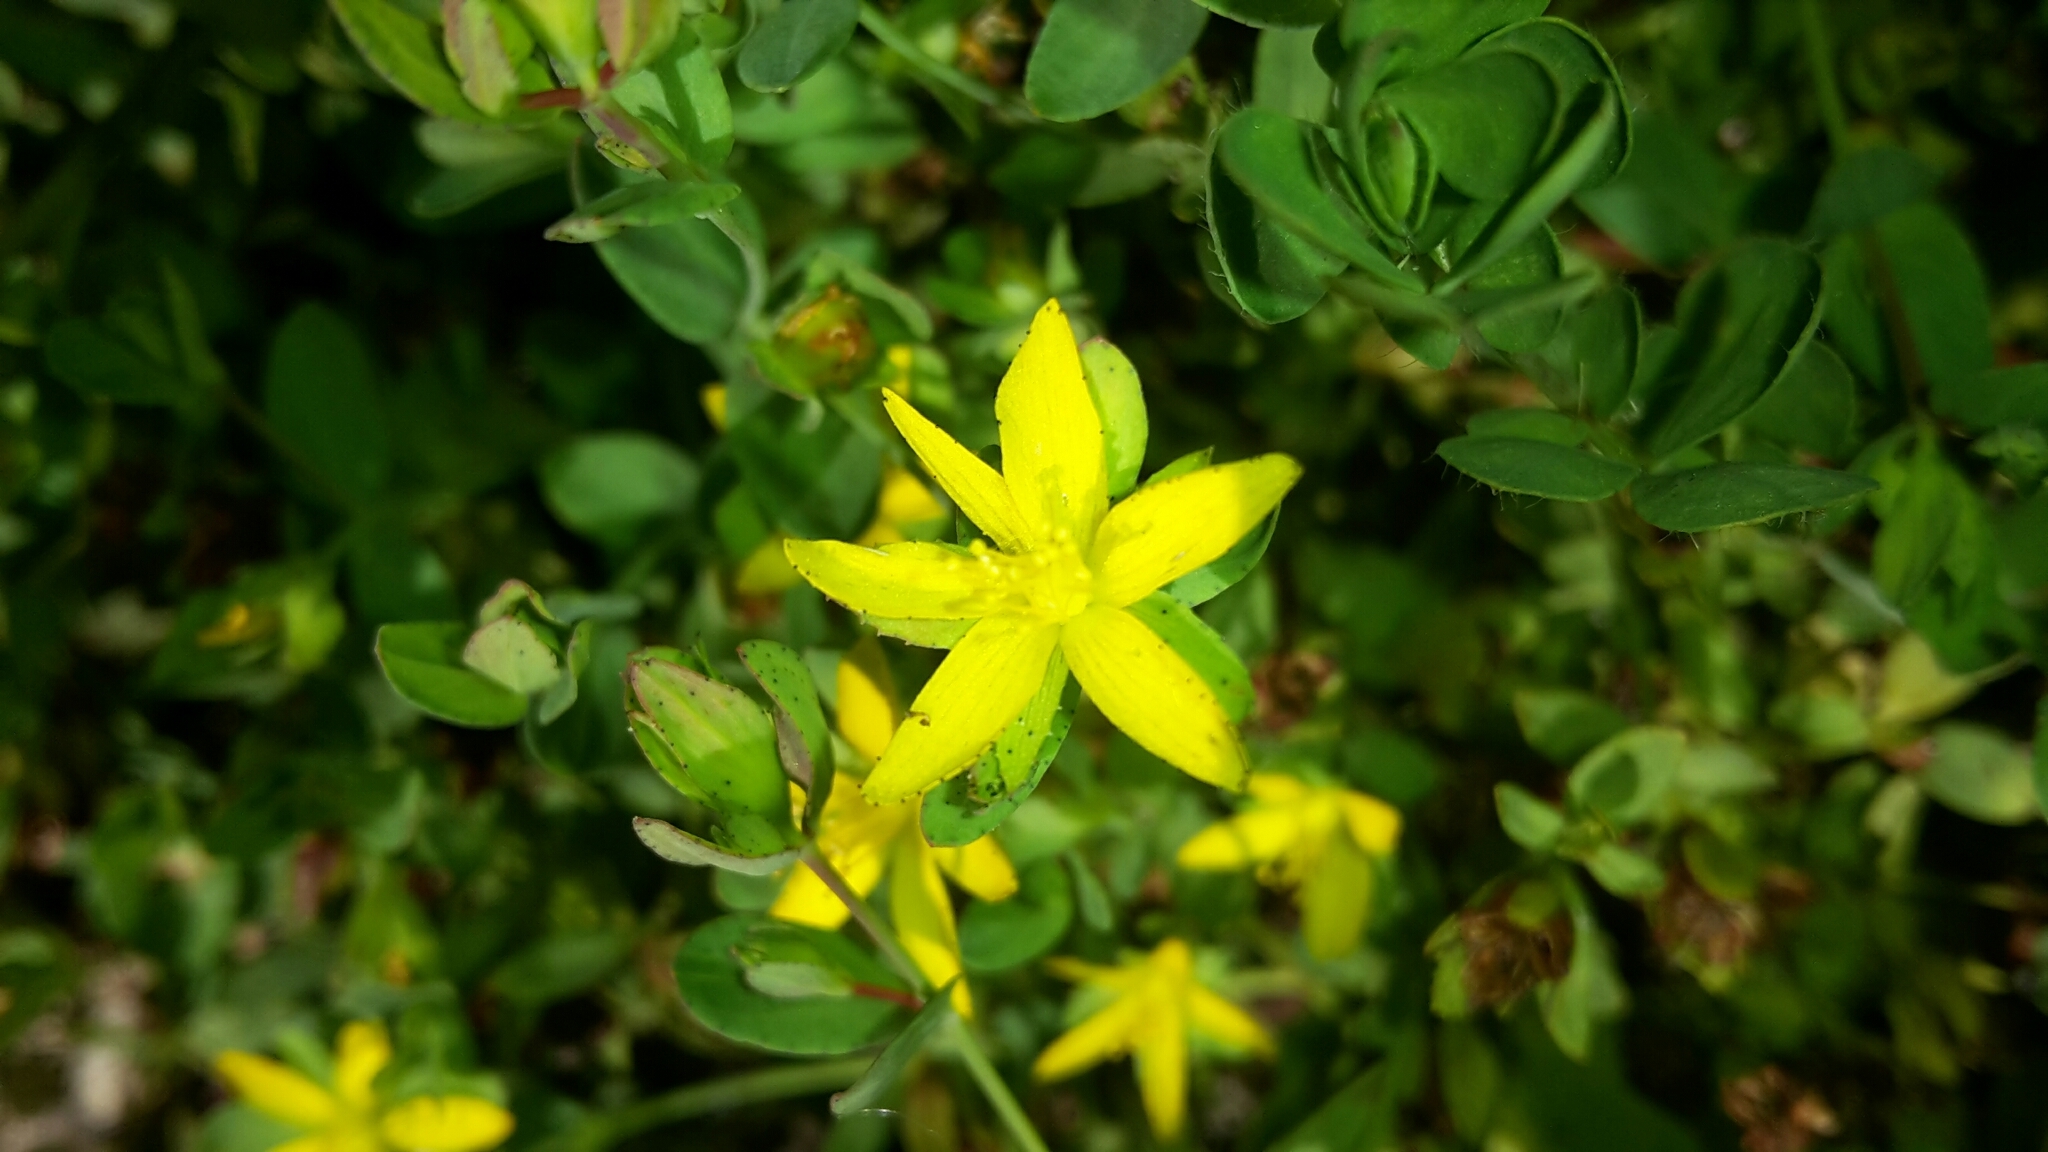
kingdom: Plantae
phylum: Tracheophyta
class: Magnoliopsida
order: Malpighiales
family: Hypericaceae
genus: Hypericum
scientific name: Hypericum humifusum
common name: Trailing st. john's-wort
